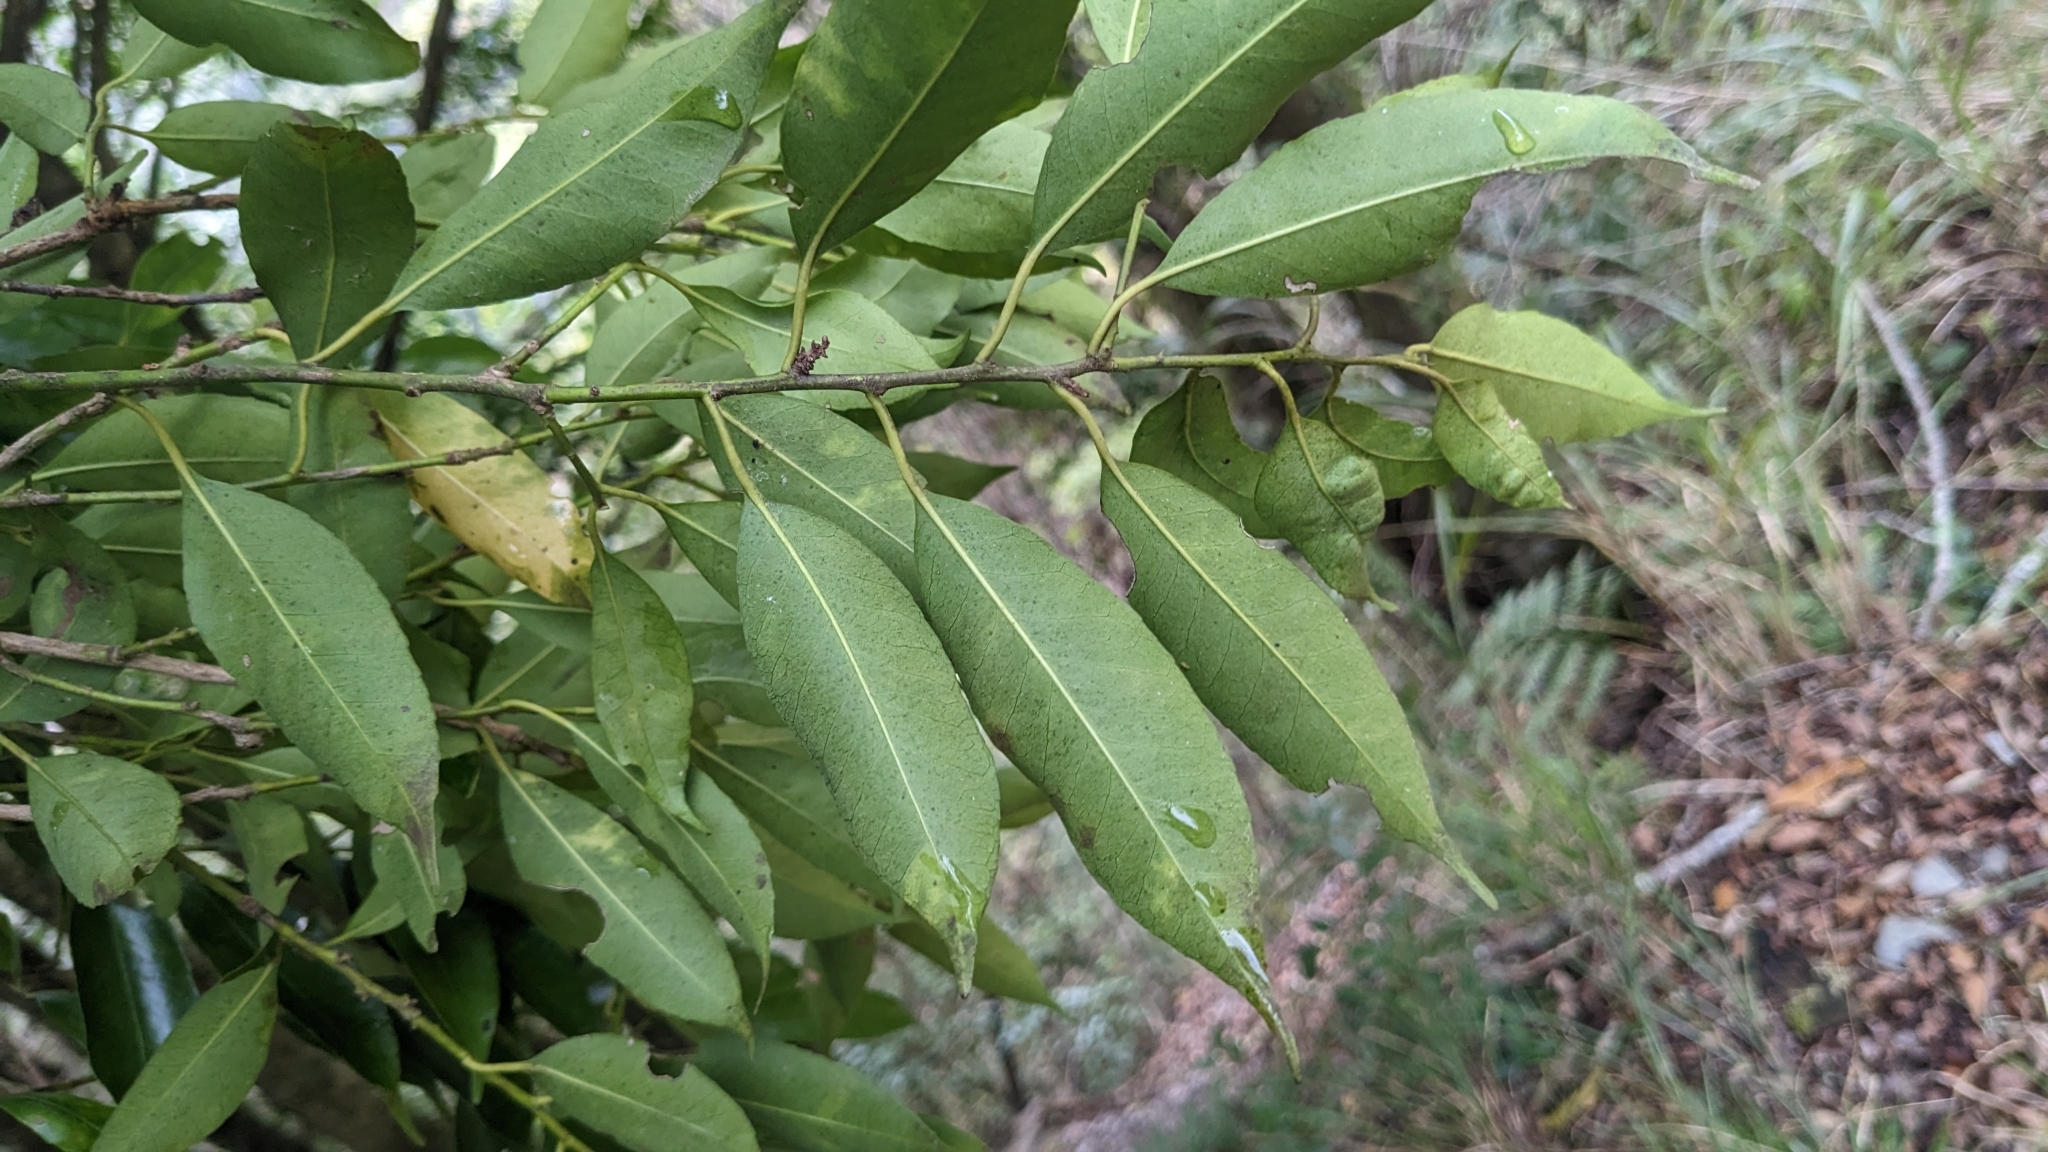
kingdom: Plantae
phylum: Tracheophyta
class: Magnoliopsida
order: Aquifoliales
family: Aquifoliaceae
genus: Ilex
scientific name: Ilex ficoidea
